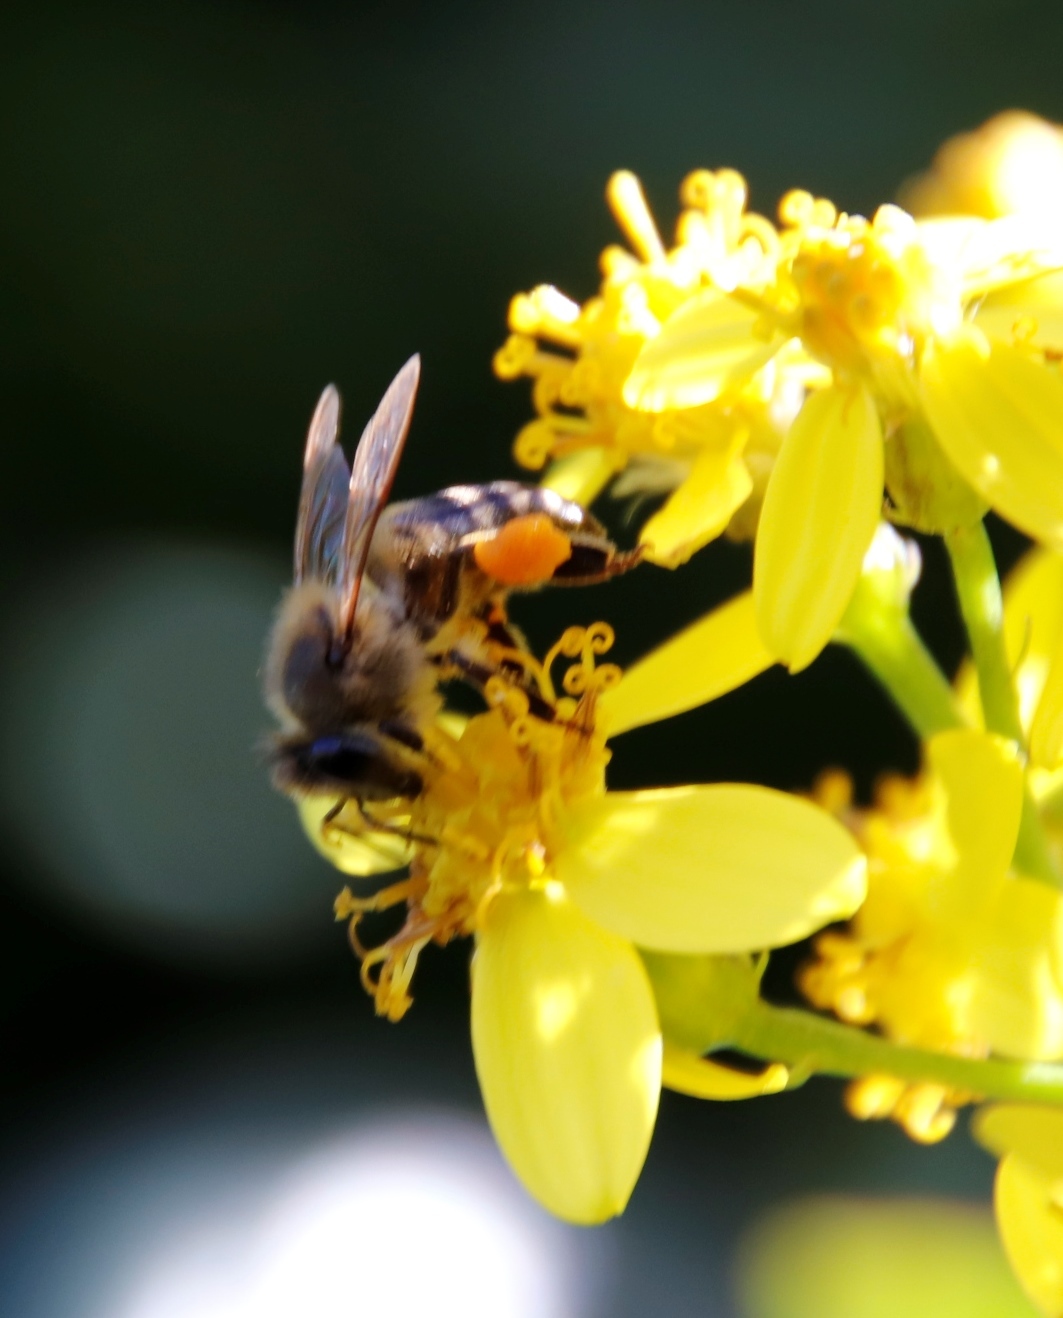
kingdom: Plantae
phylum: Tracheophyta
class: Magnoliopsida
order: Asterales
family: Asteraceae
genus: Senecio
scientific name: Senecio angulatus
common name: Climbing groundsel
